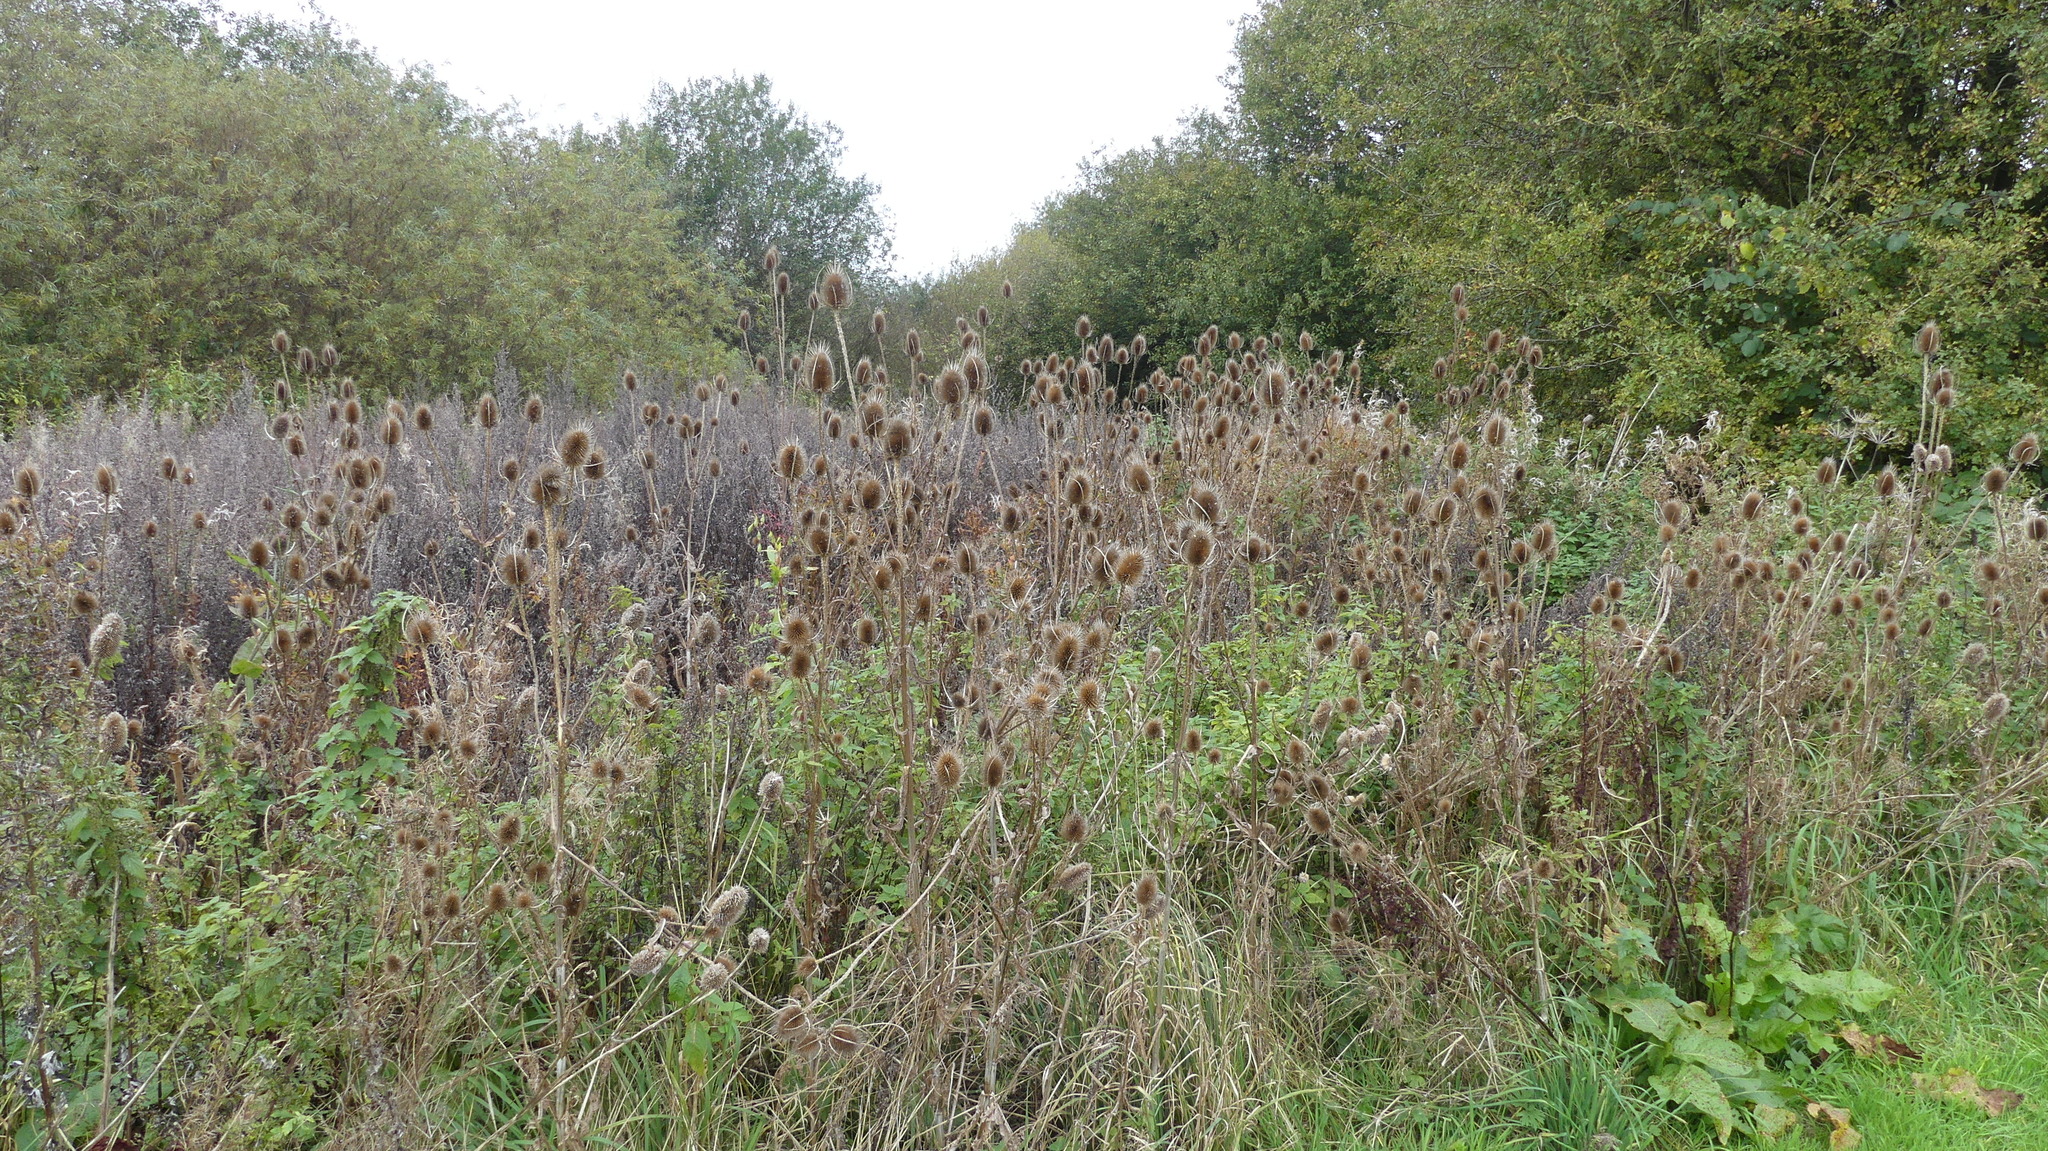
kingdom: Plantae
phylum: Tracheophyta
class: Magnoliopsida
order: Dipsacales
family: Caprifoliaceae
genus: Dipsacus
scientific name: Dipsacus fullonum
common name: Teasel
